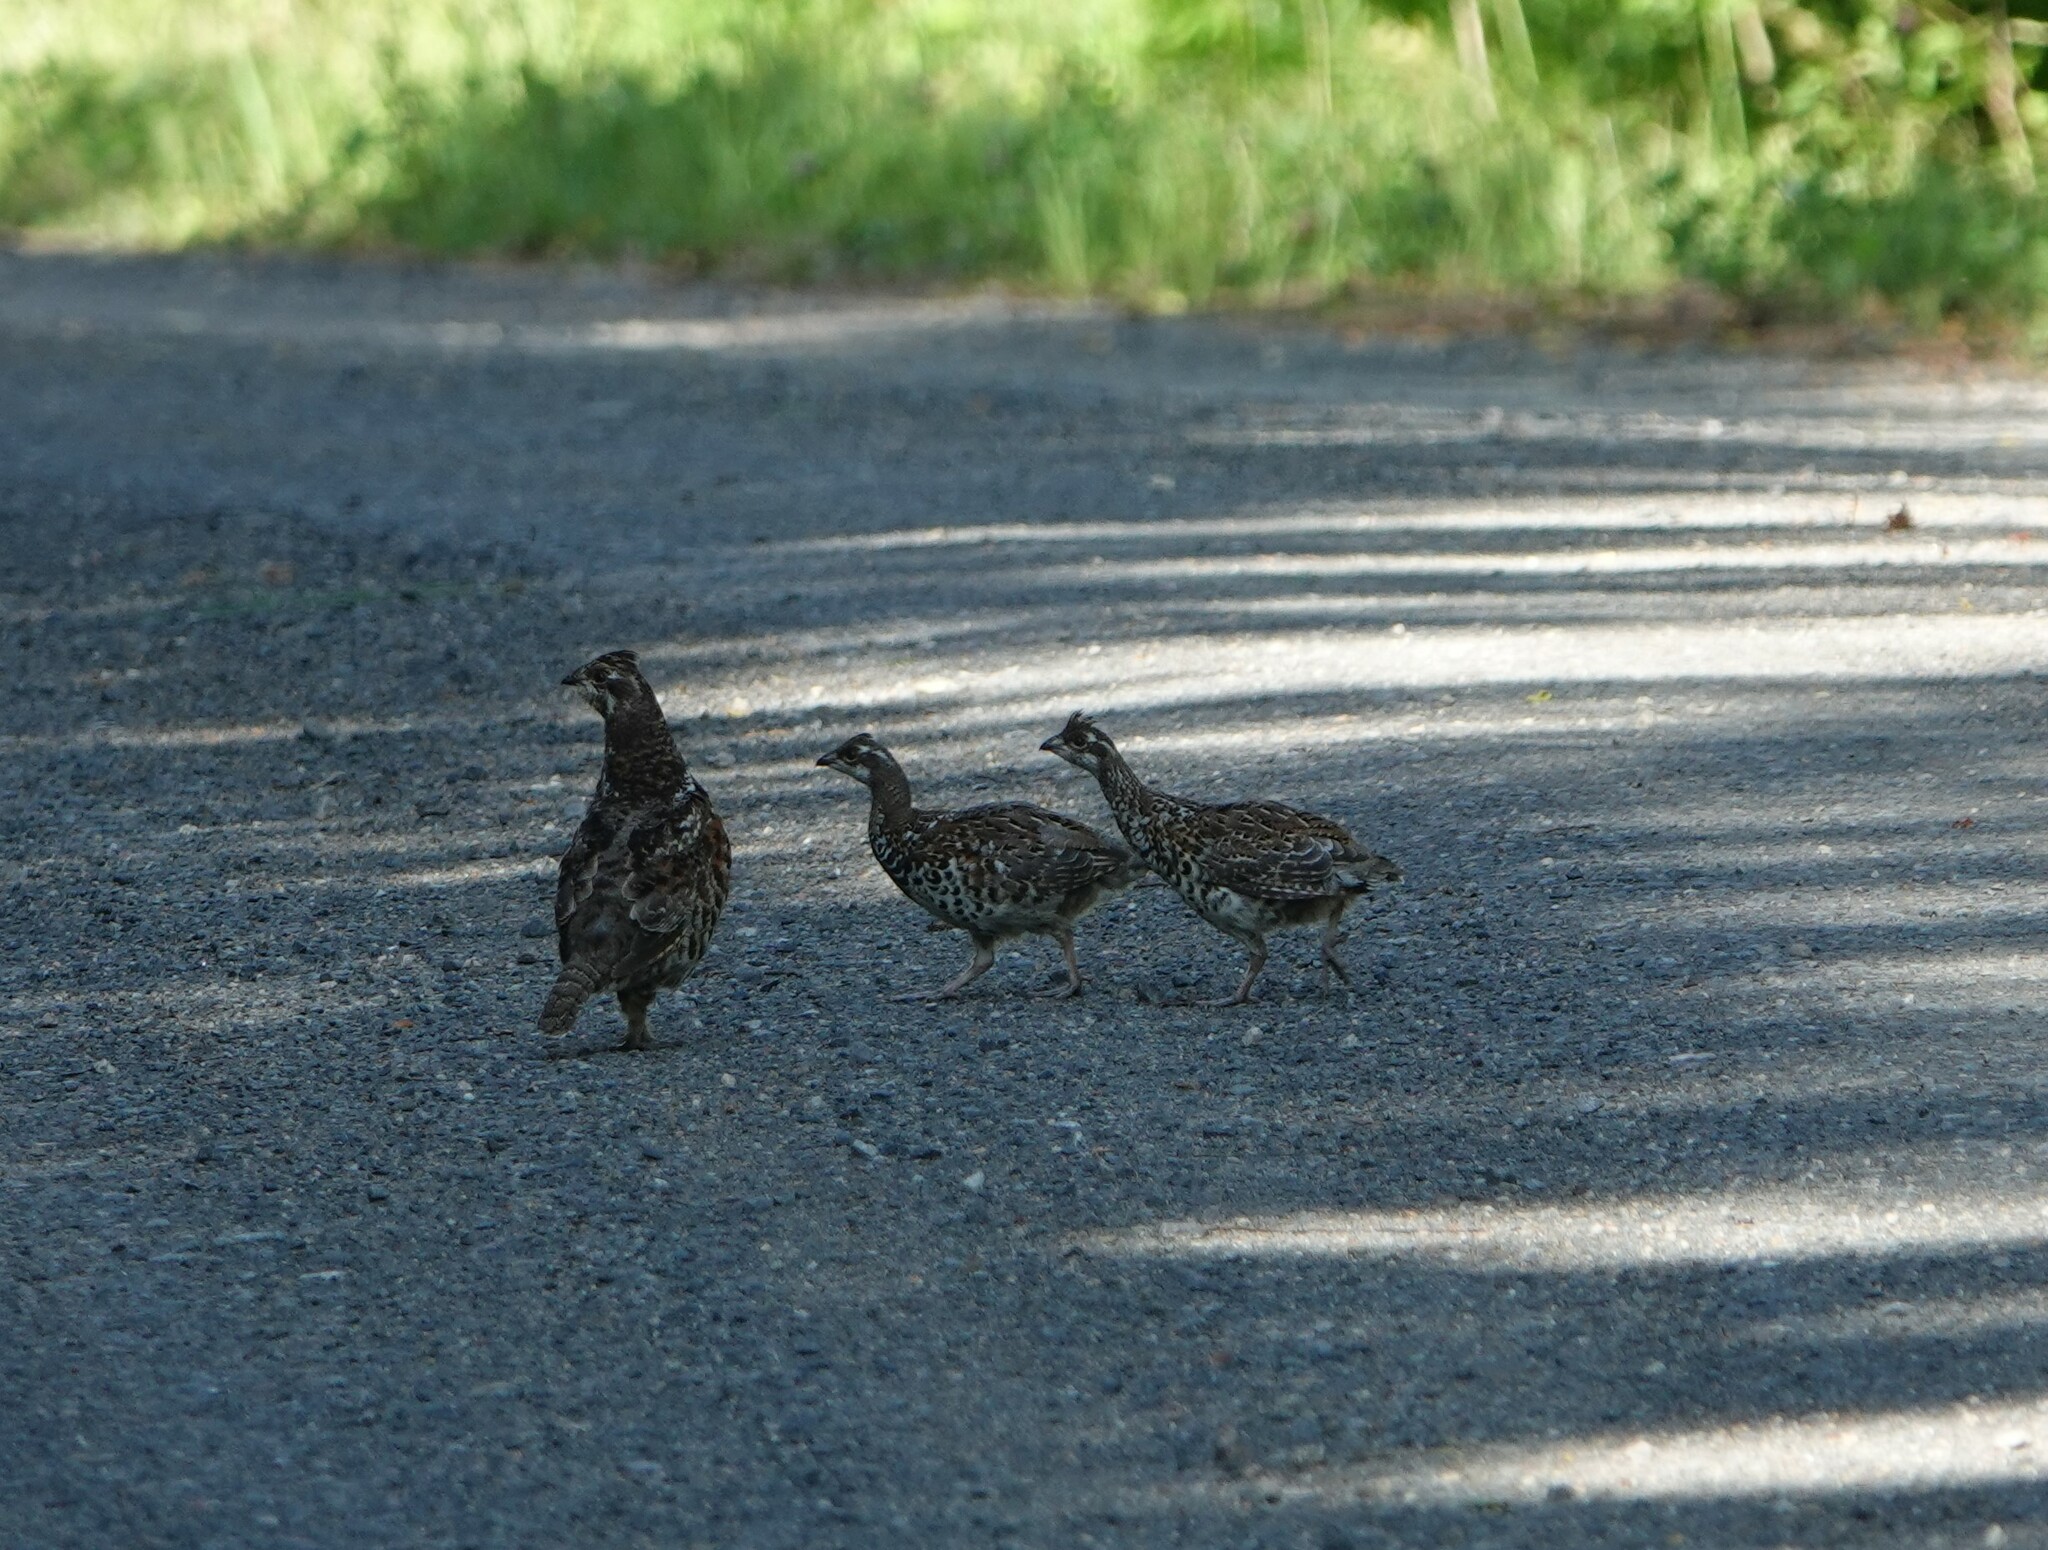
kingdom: Animalia
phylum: Chordata
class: Aves
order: Galliformes
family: Phasianidae
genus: Tetrastes
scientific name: Tetrastes bonasia
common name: Hazel grouse
